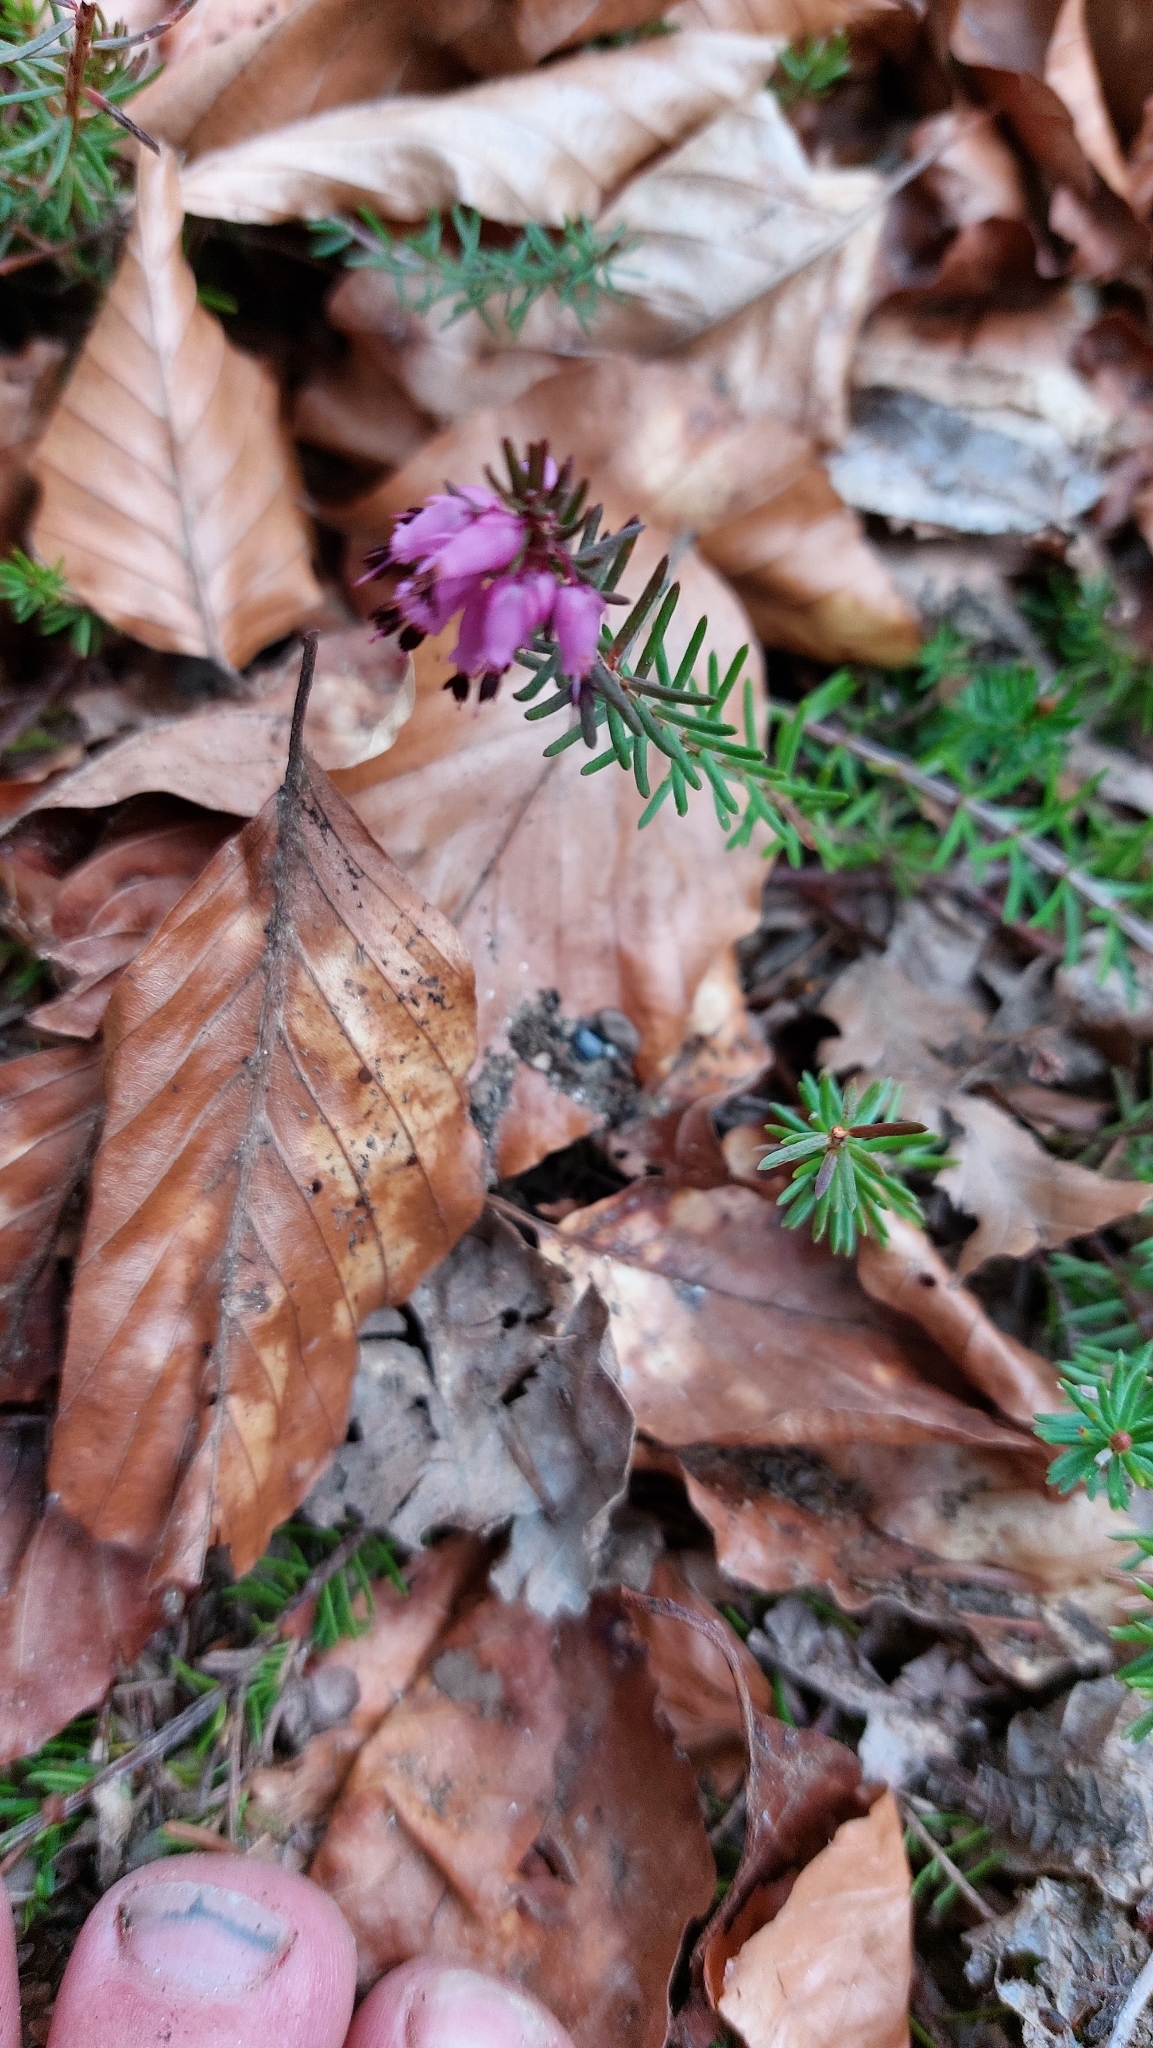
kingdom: Plantae
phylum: Tracheophyta
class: Magnoliopsida
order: Ericales
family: Ericaceae
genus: Erica
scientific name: Erica carnea
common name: Winter heath
